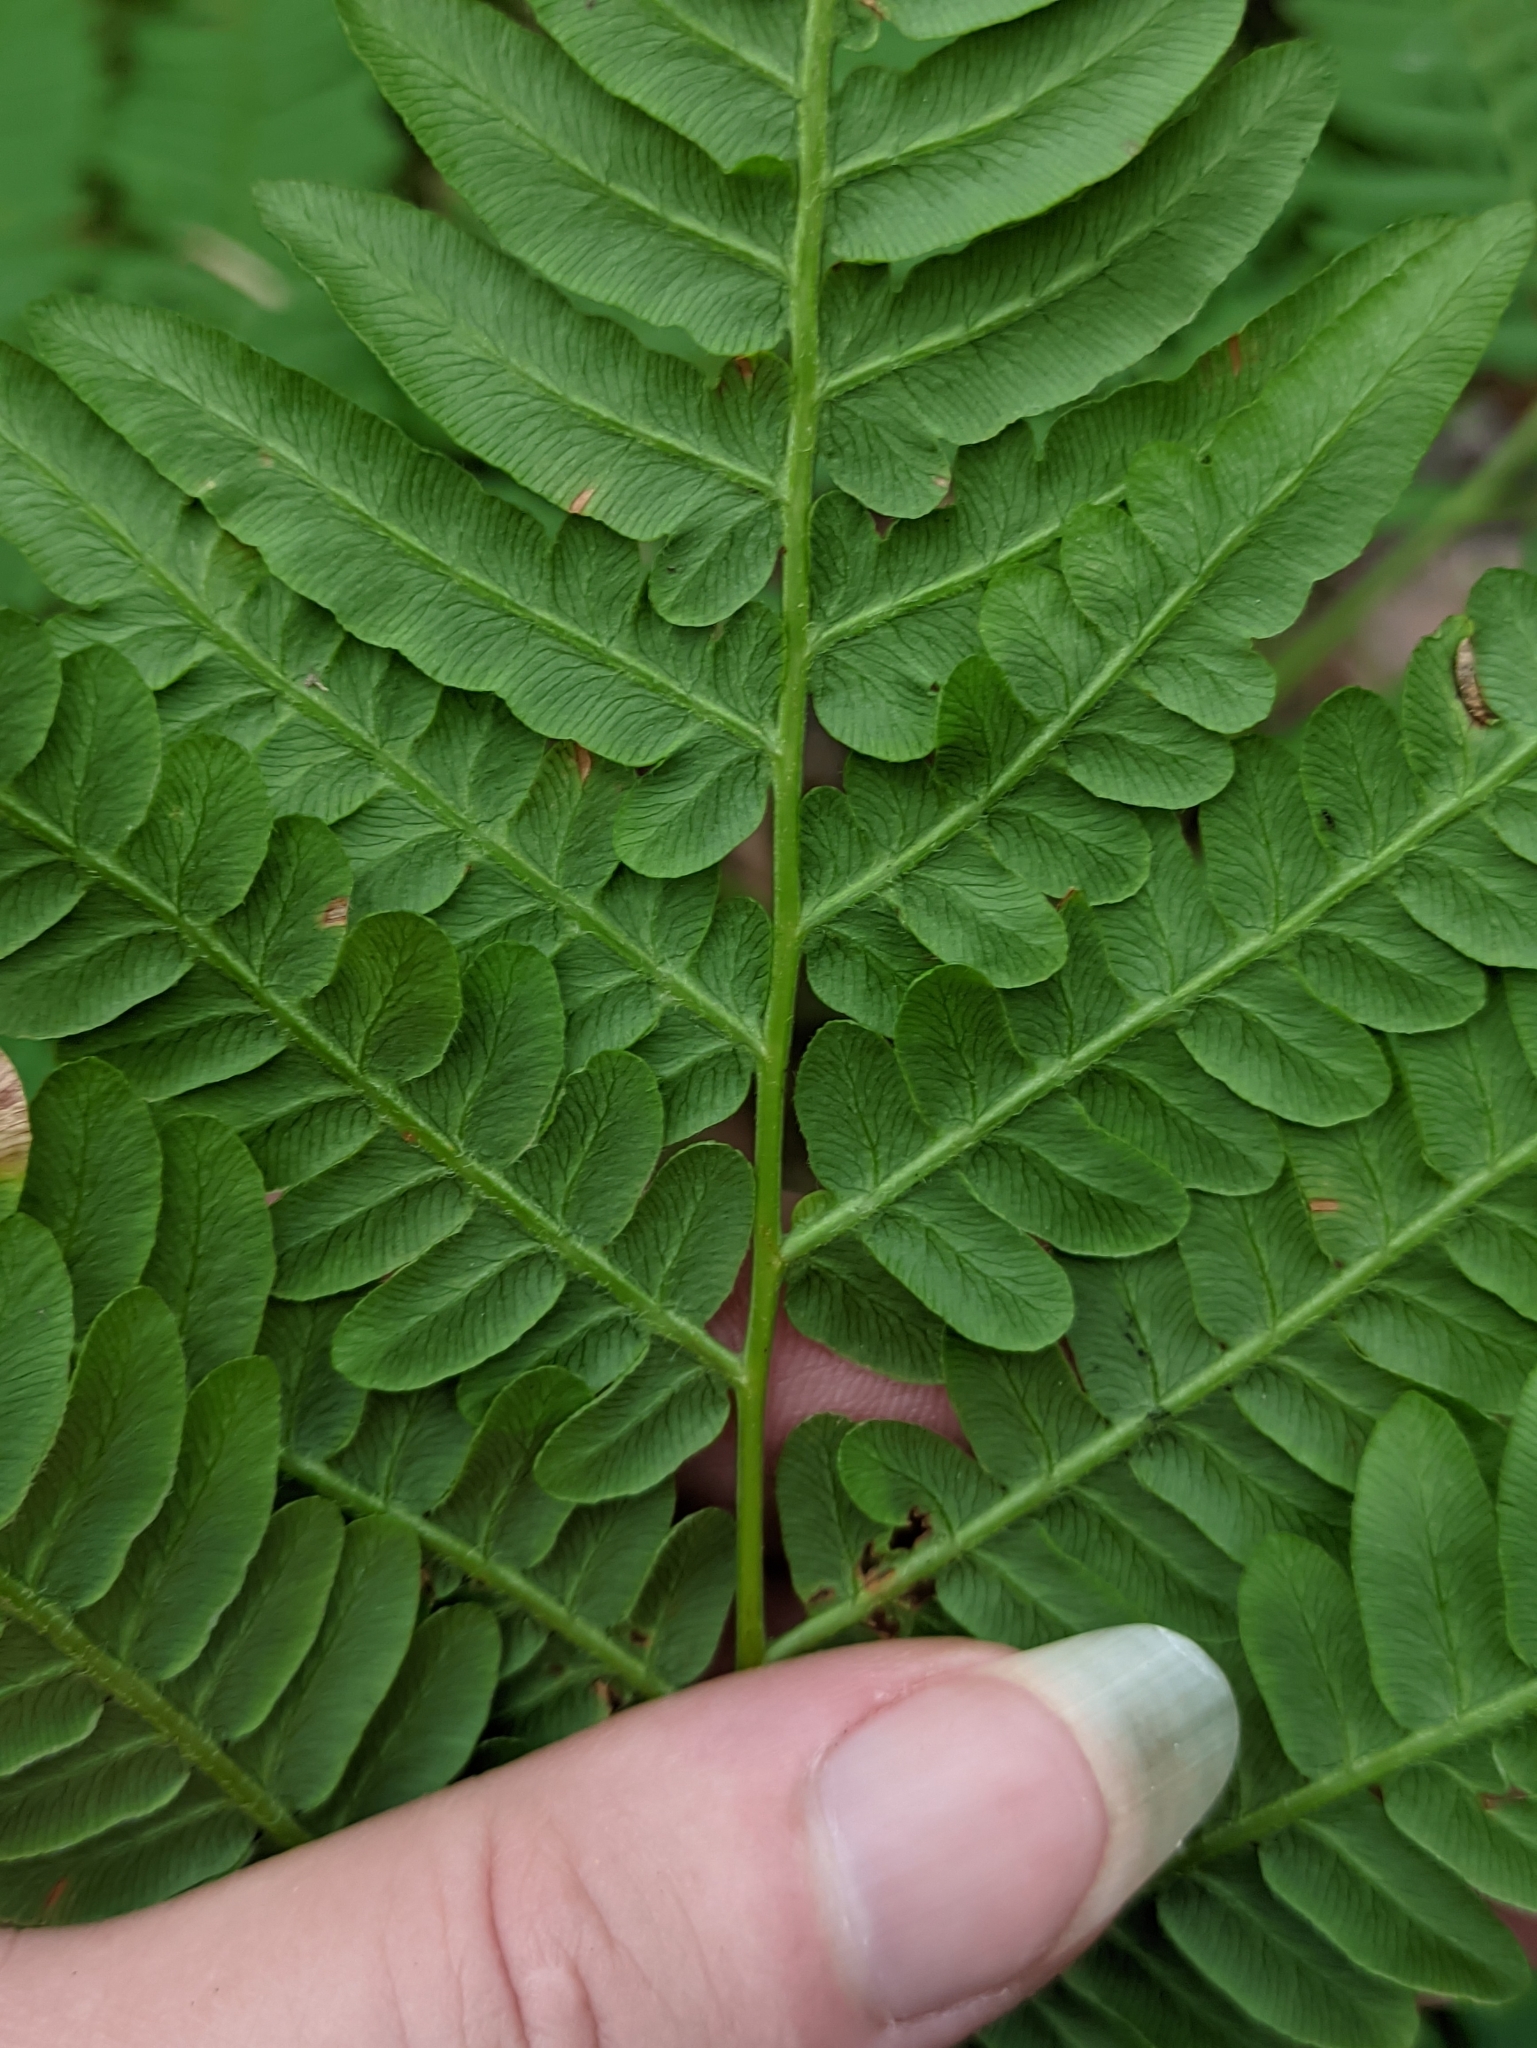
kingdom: Plantae
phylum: Tracheophyta
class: Polypodiopsida
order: Polypodiales
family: Dennstaedtiaceae
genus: Pteridium
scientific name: Pteridium aquilinum
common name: Bracken
